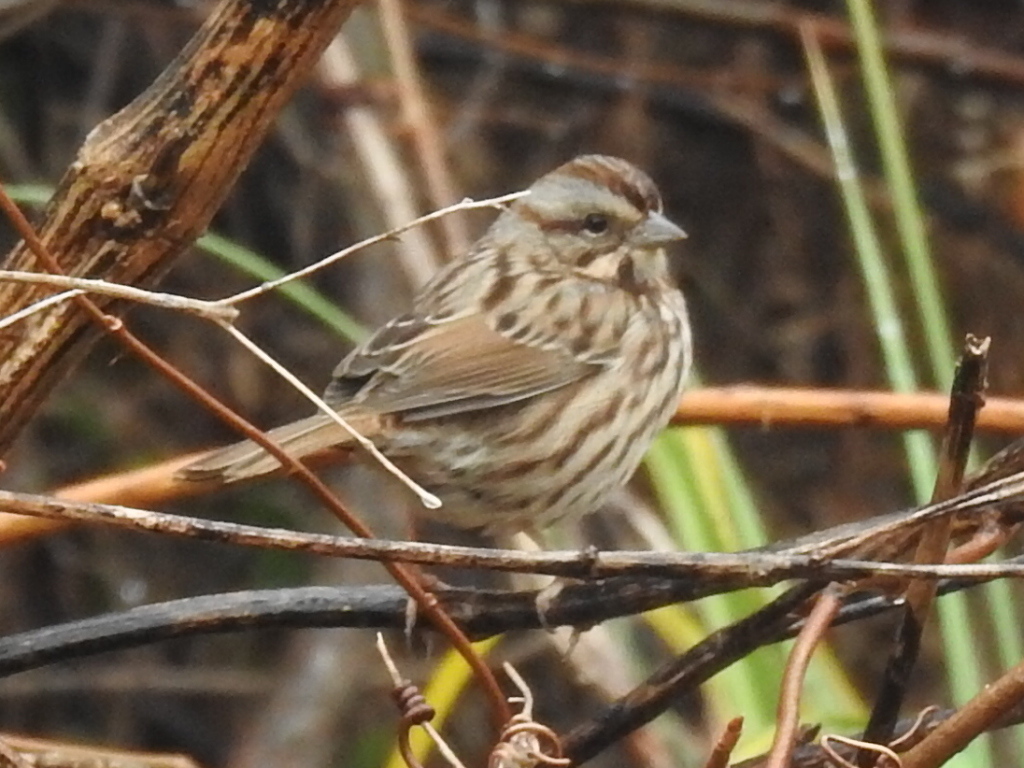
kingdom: Animalia
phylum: Chordata
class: Aves
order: Passeriformes
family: Passerellidae
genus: Melospiza
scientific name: Melospiza melodia
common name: Song sparrow
